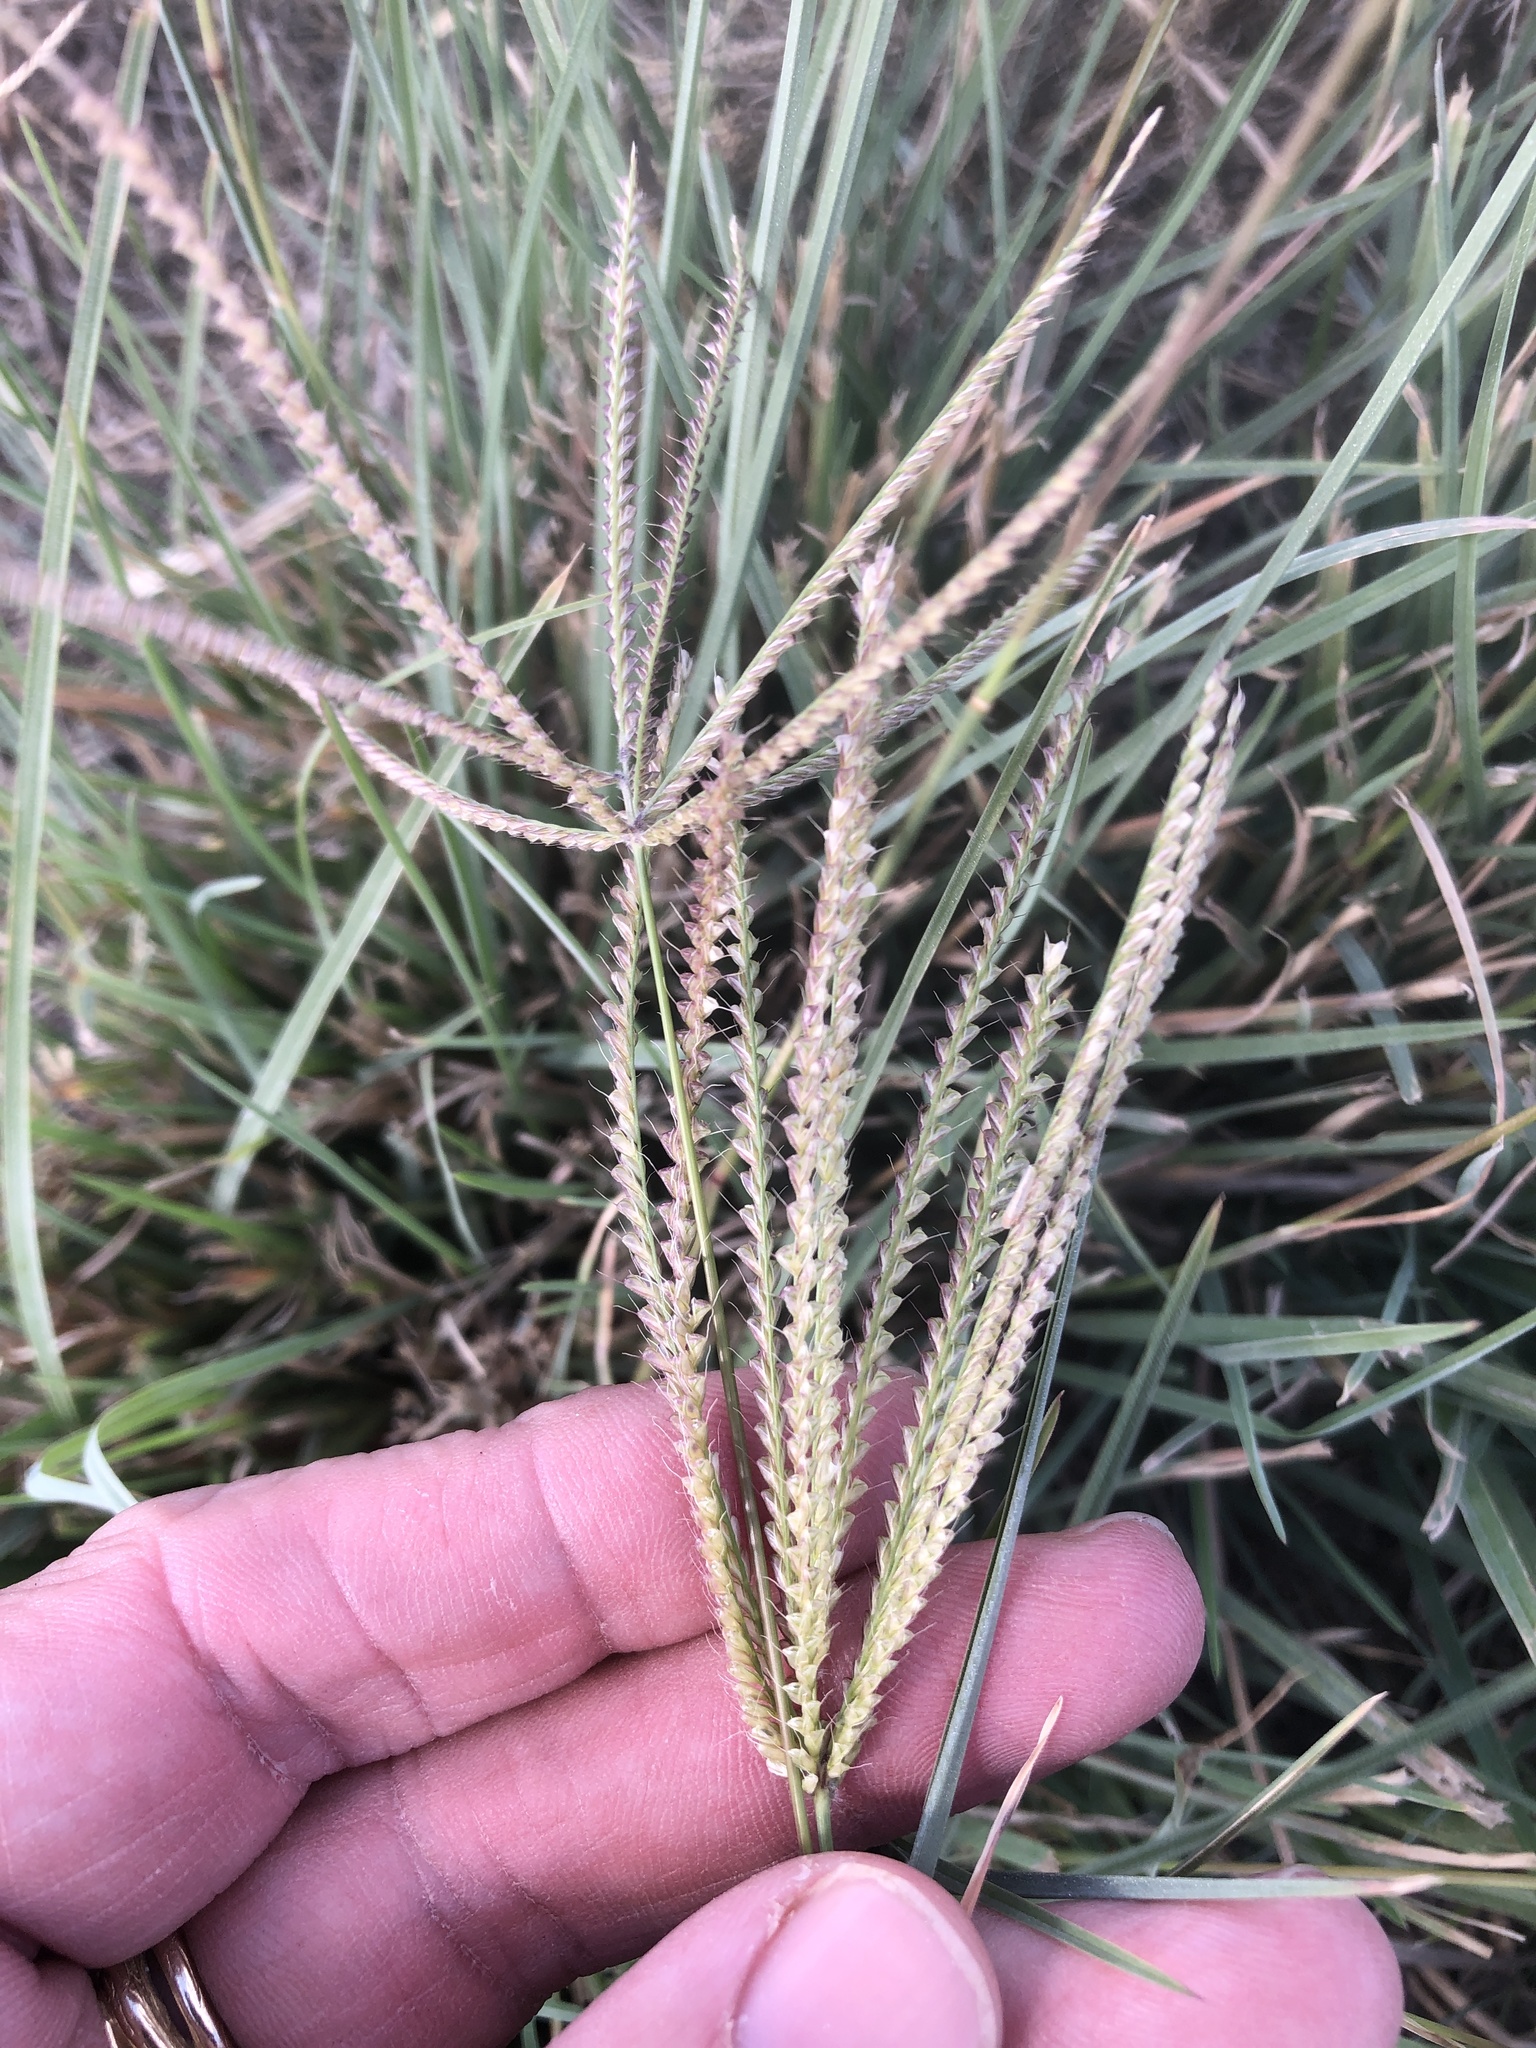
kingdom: Plantae
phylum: Tracheophyta
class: Liliopsida
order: Poales
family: Poaceae
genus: Chloris
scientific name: Chloris subdolichostachya
